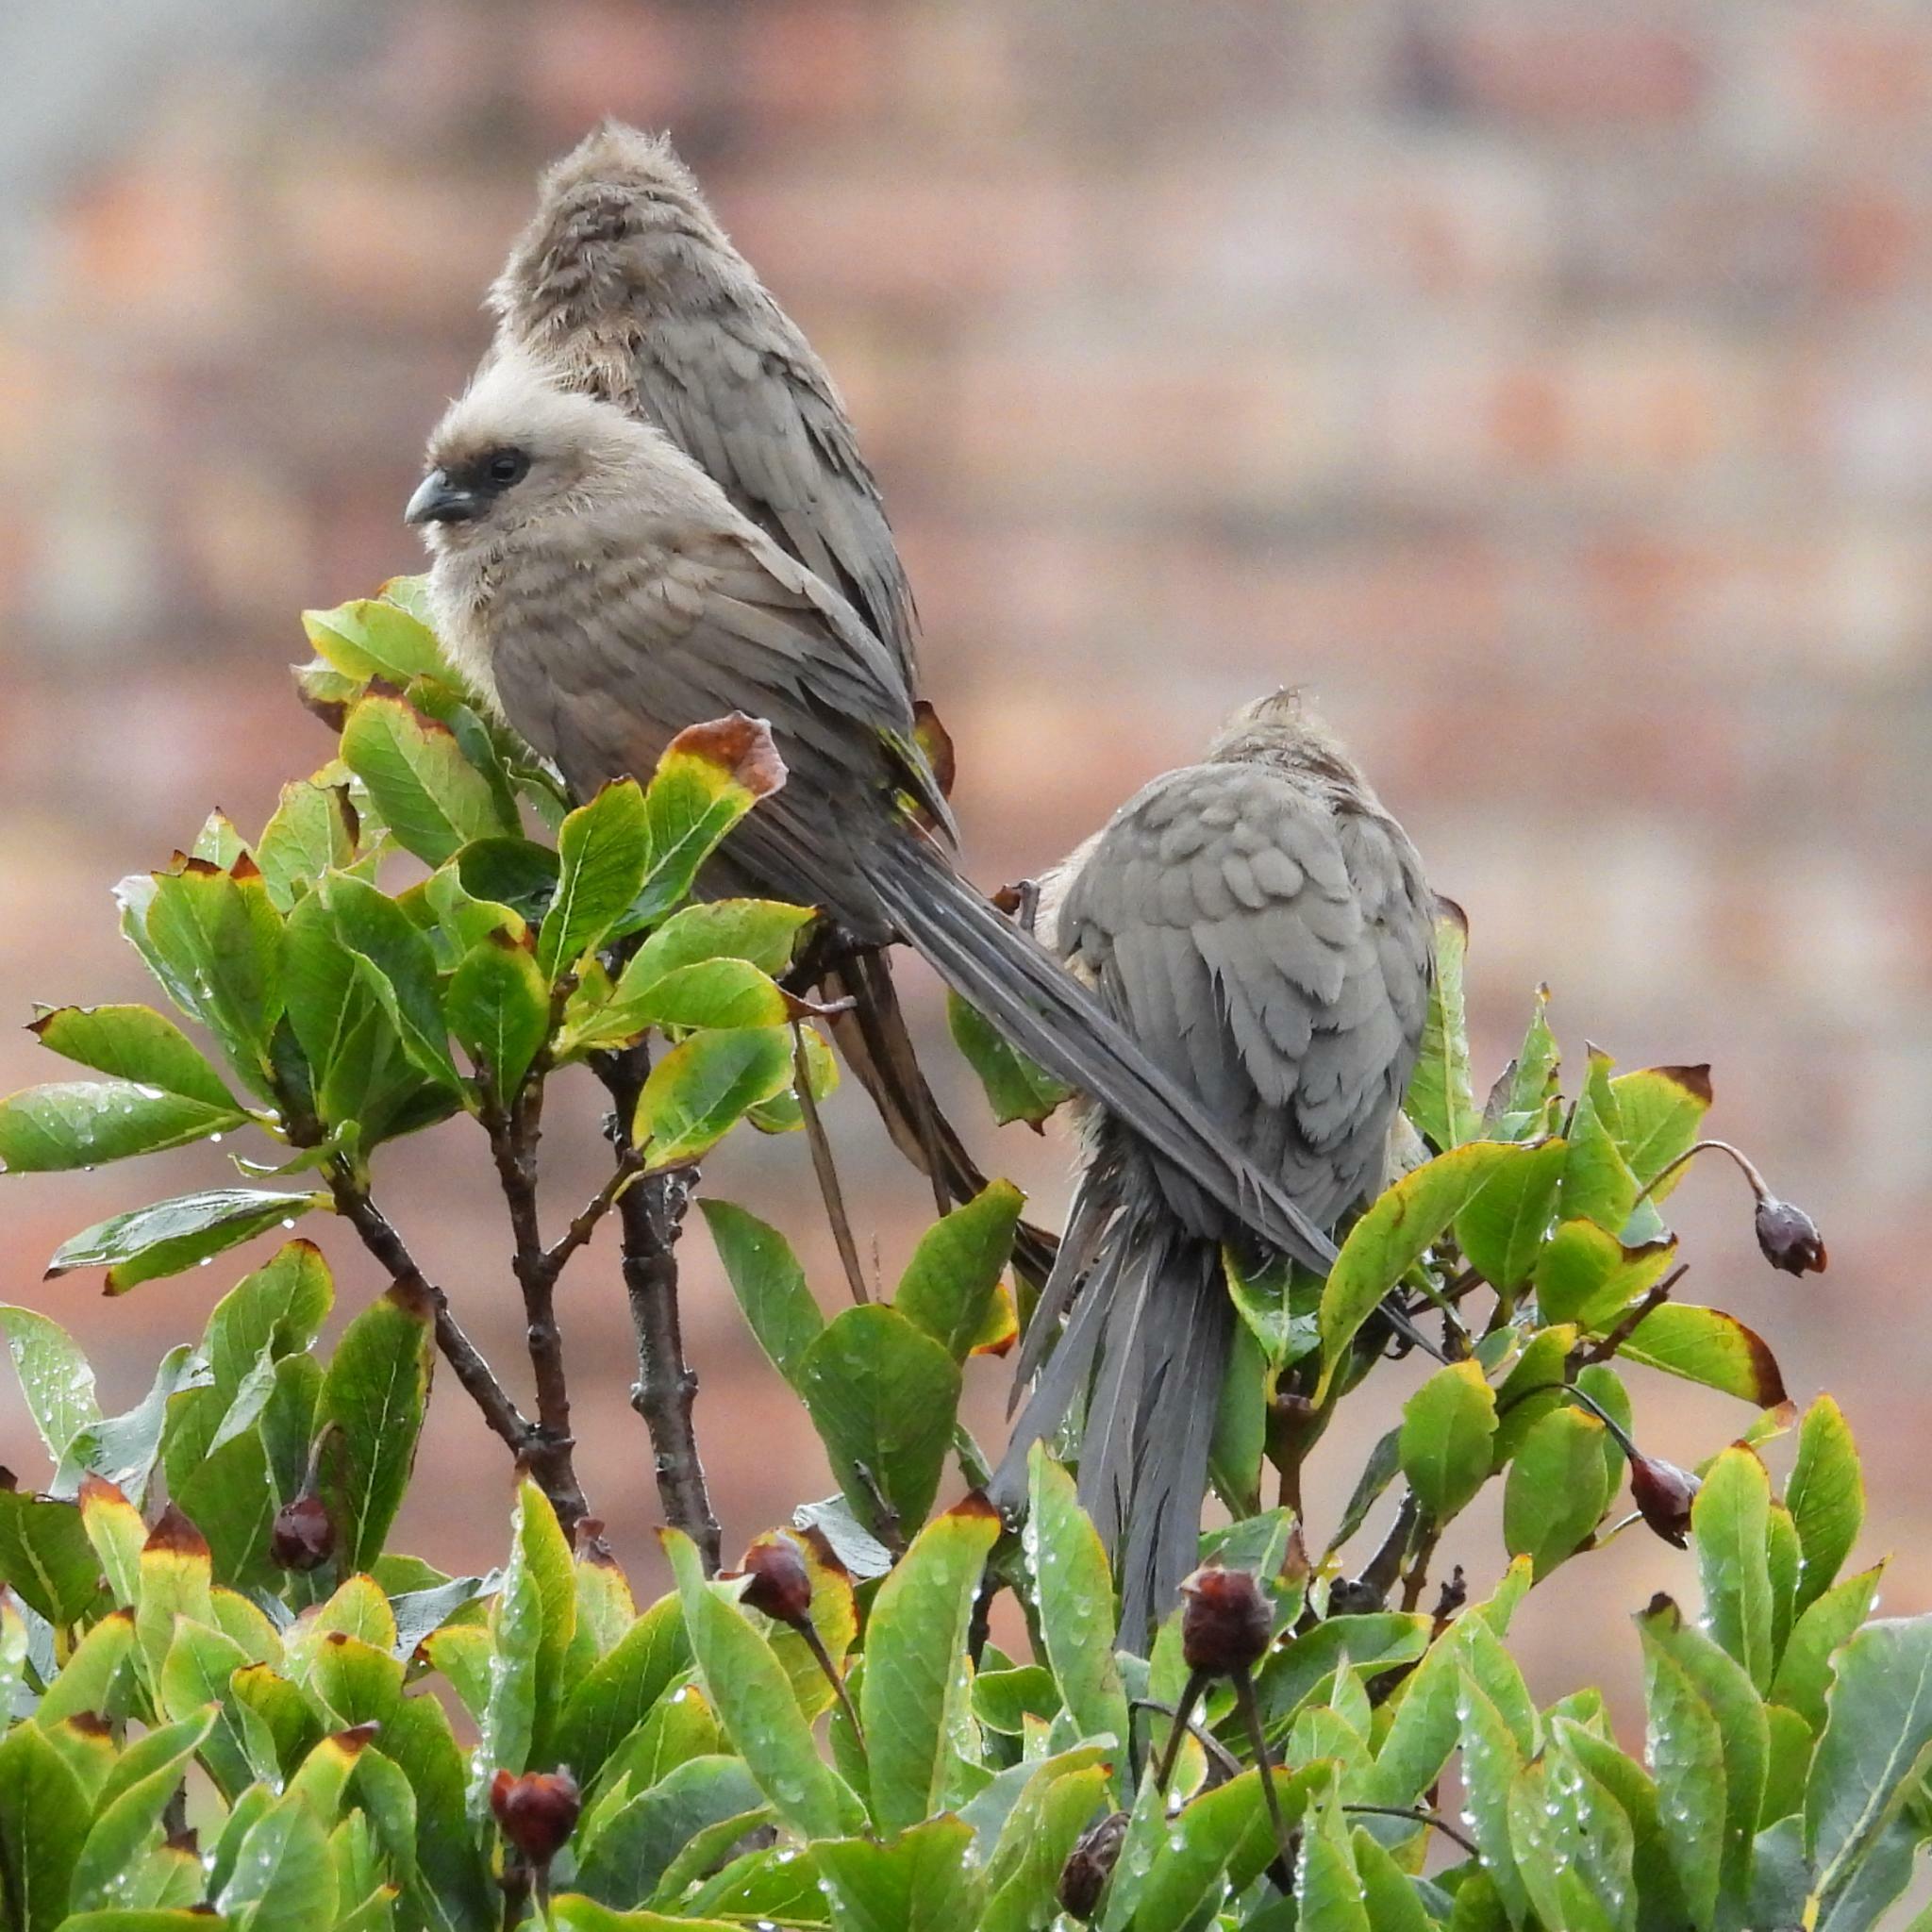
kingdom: Animalia
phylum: Chordata
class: Aves
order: Coliiformes
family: Coliidae
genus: Colius
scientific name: Colius striatus
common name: Speckled mousebird
